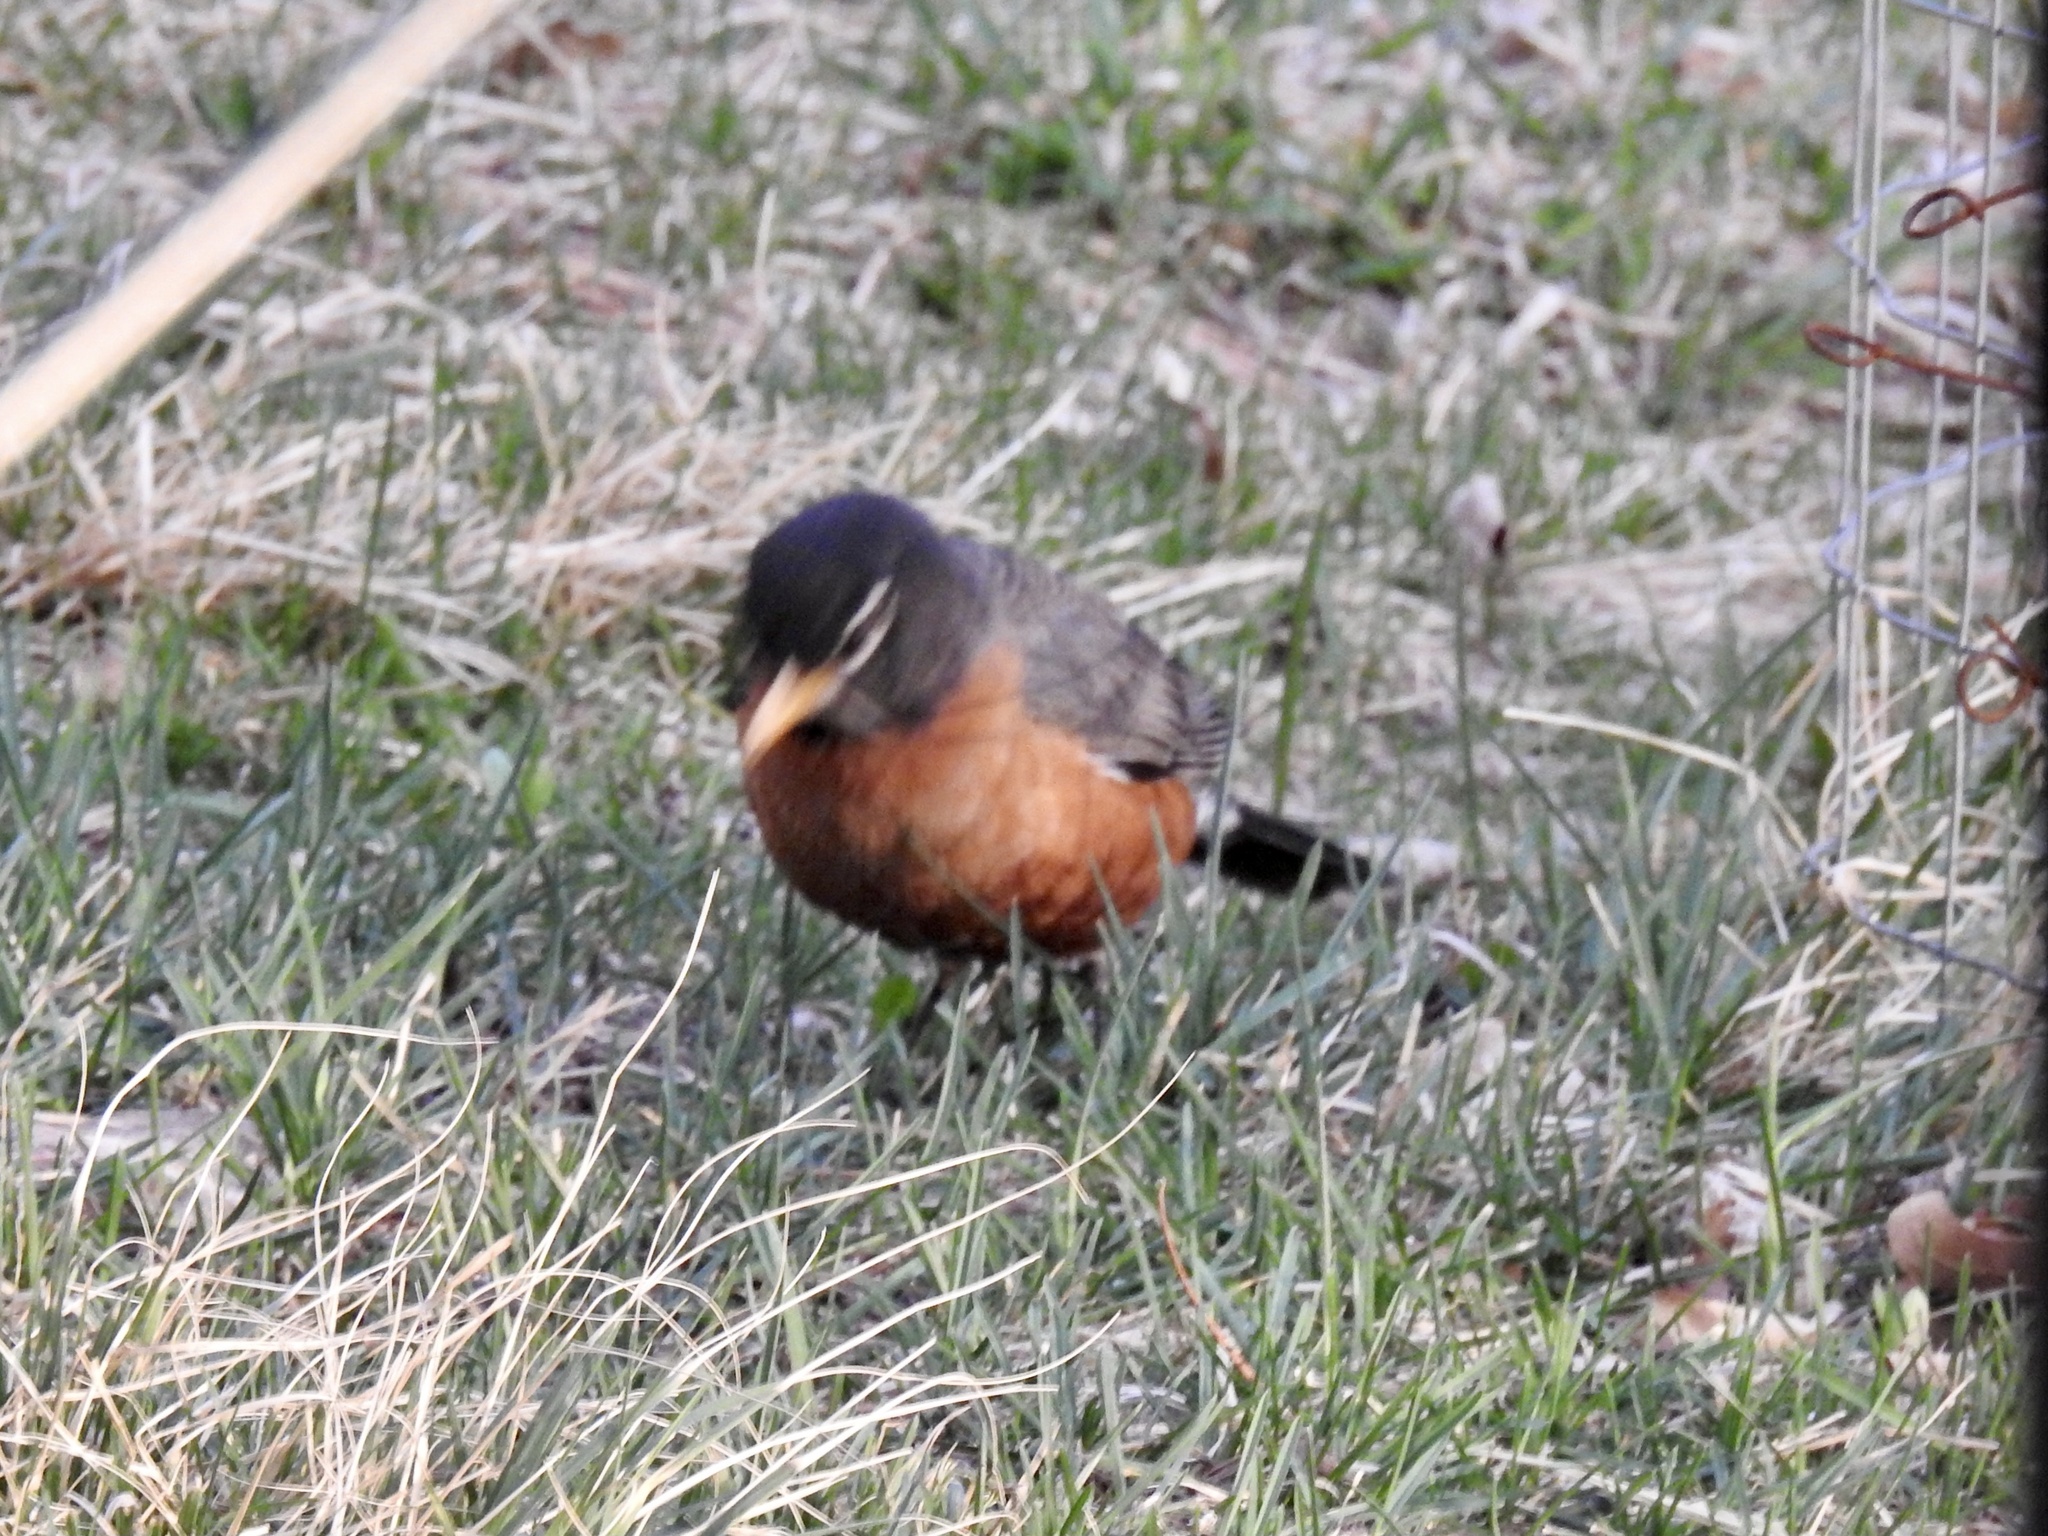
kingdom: Animalia
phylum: Chordata
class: Aves
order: Passeriformes
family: Turdidae
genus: Turdus
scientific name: Turdus migratorius
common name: American robin
